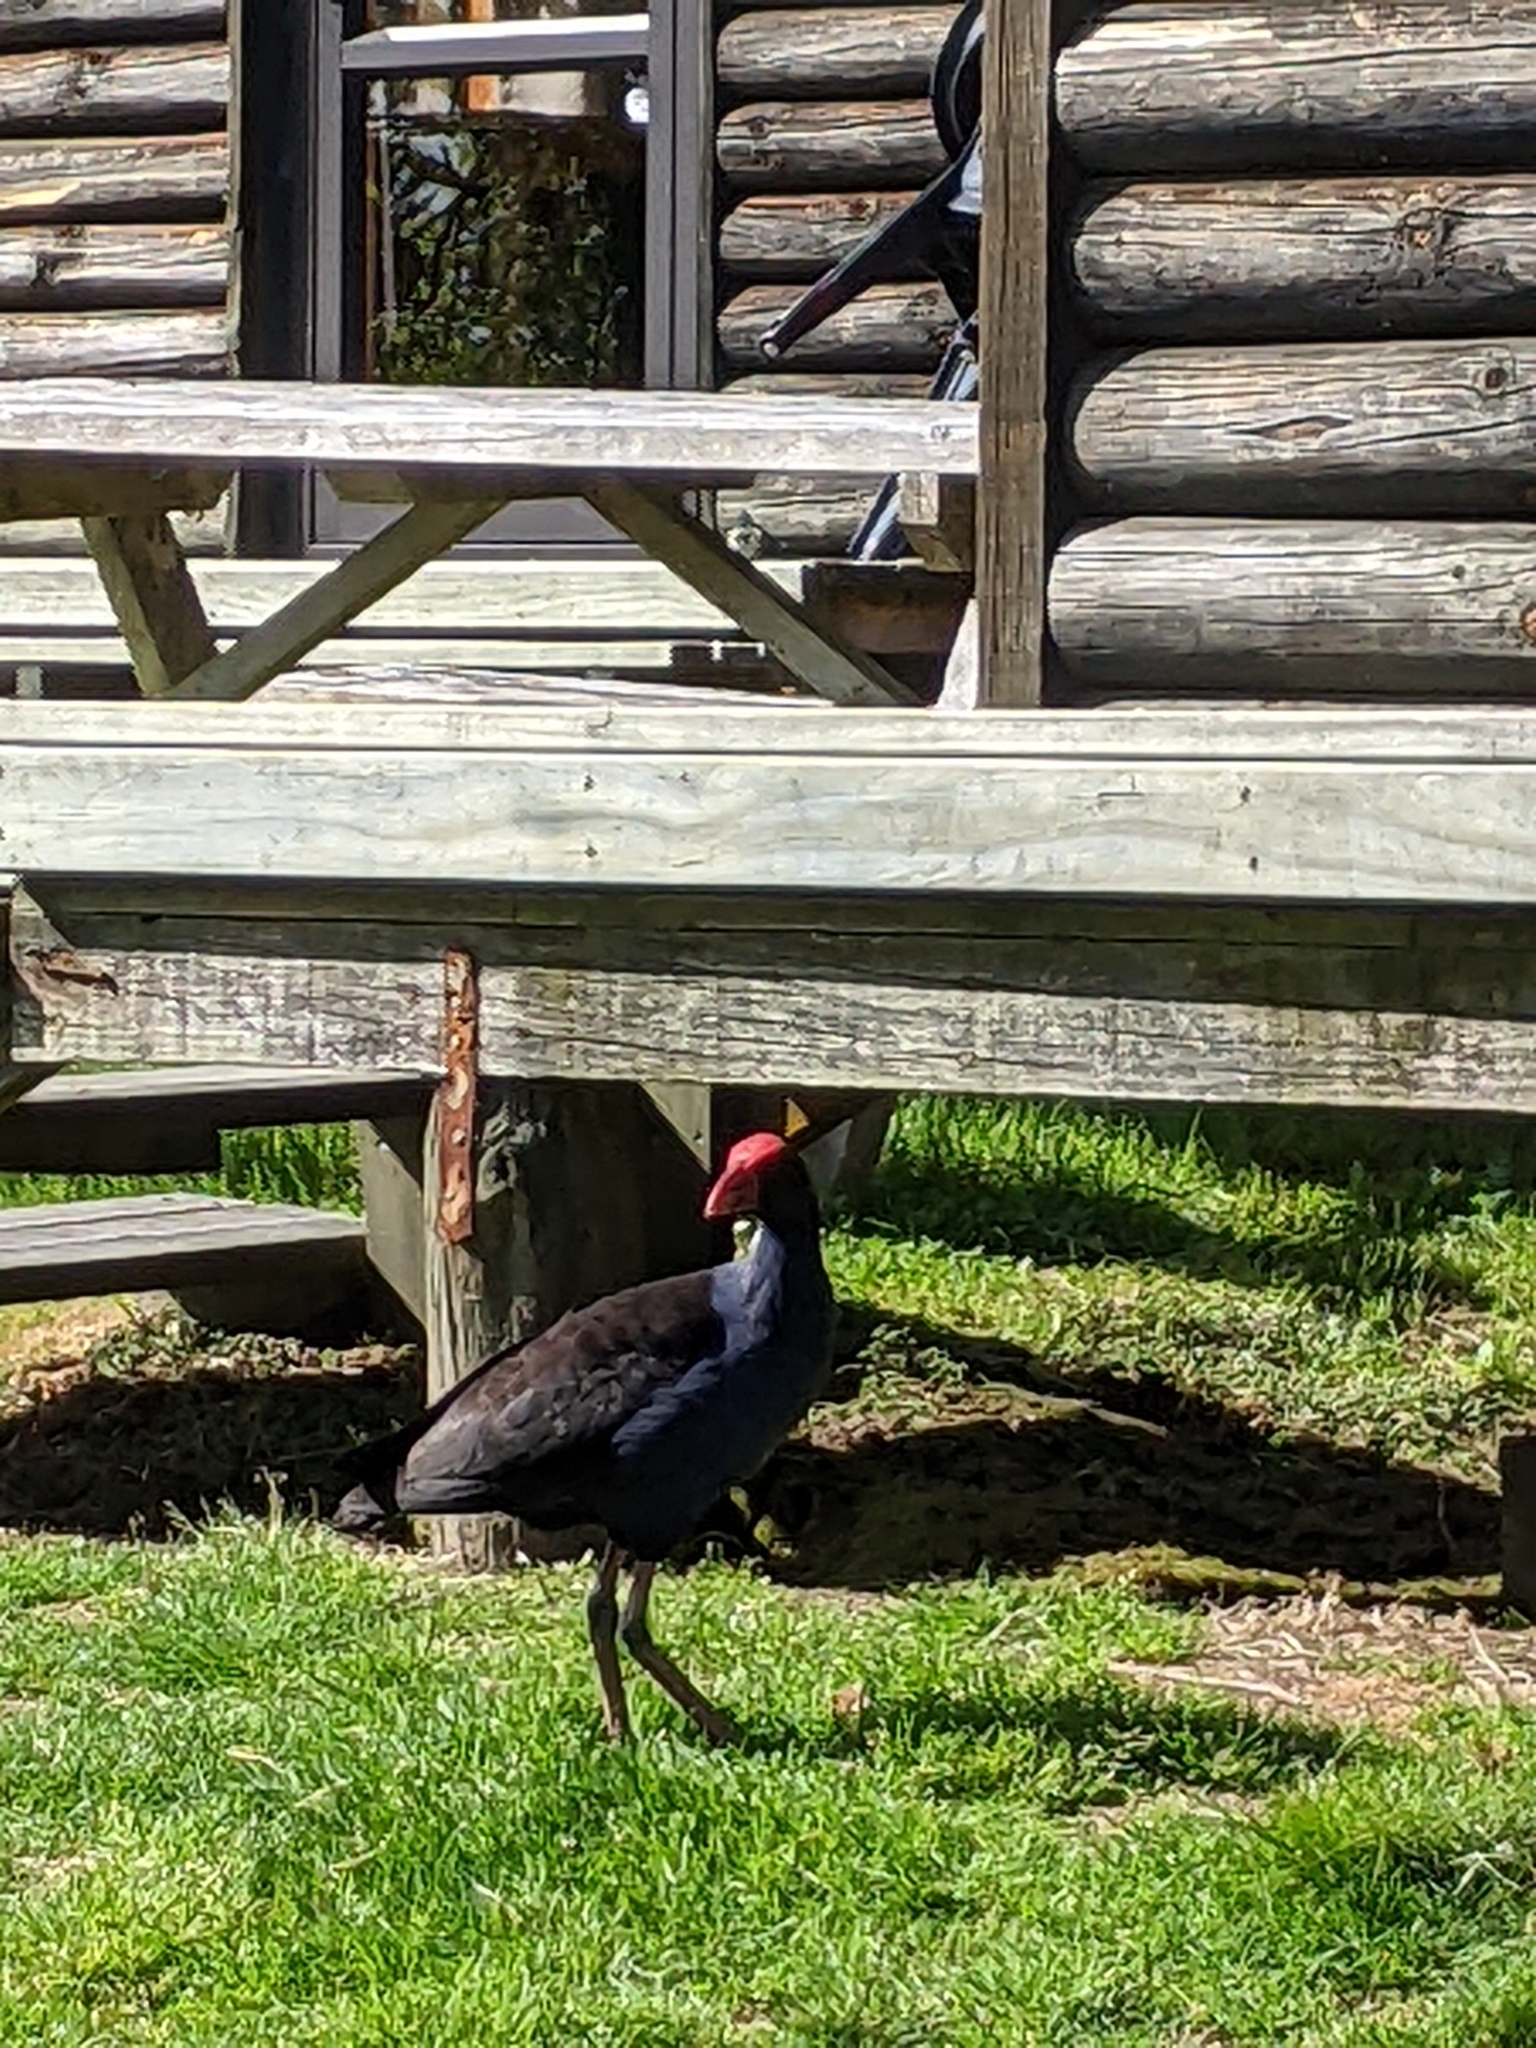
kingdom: Animalia
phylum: Chordata
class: Aves
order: Gruiformes
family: Rallidae
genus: Porphyrio
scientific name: Porphyrio melanotus
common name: Australasian swamphen
